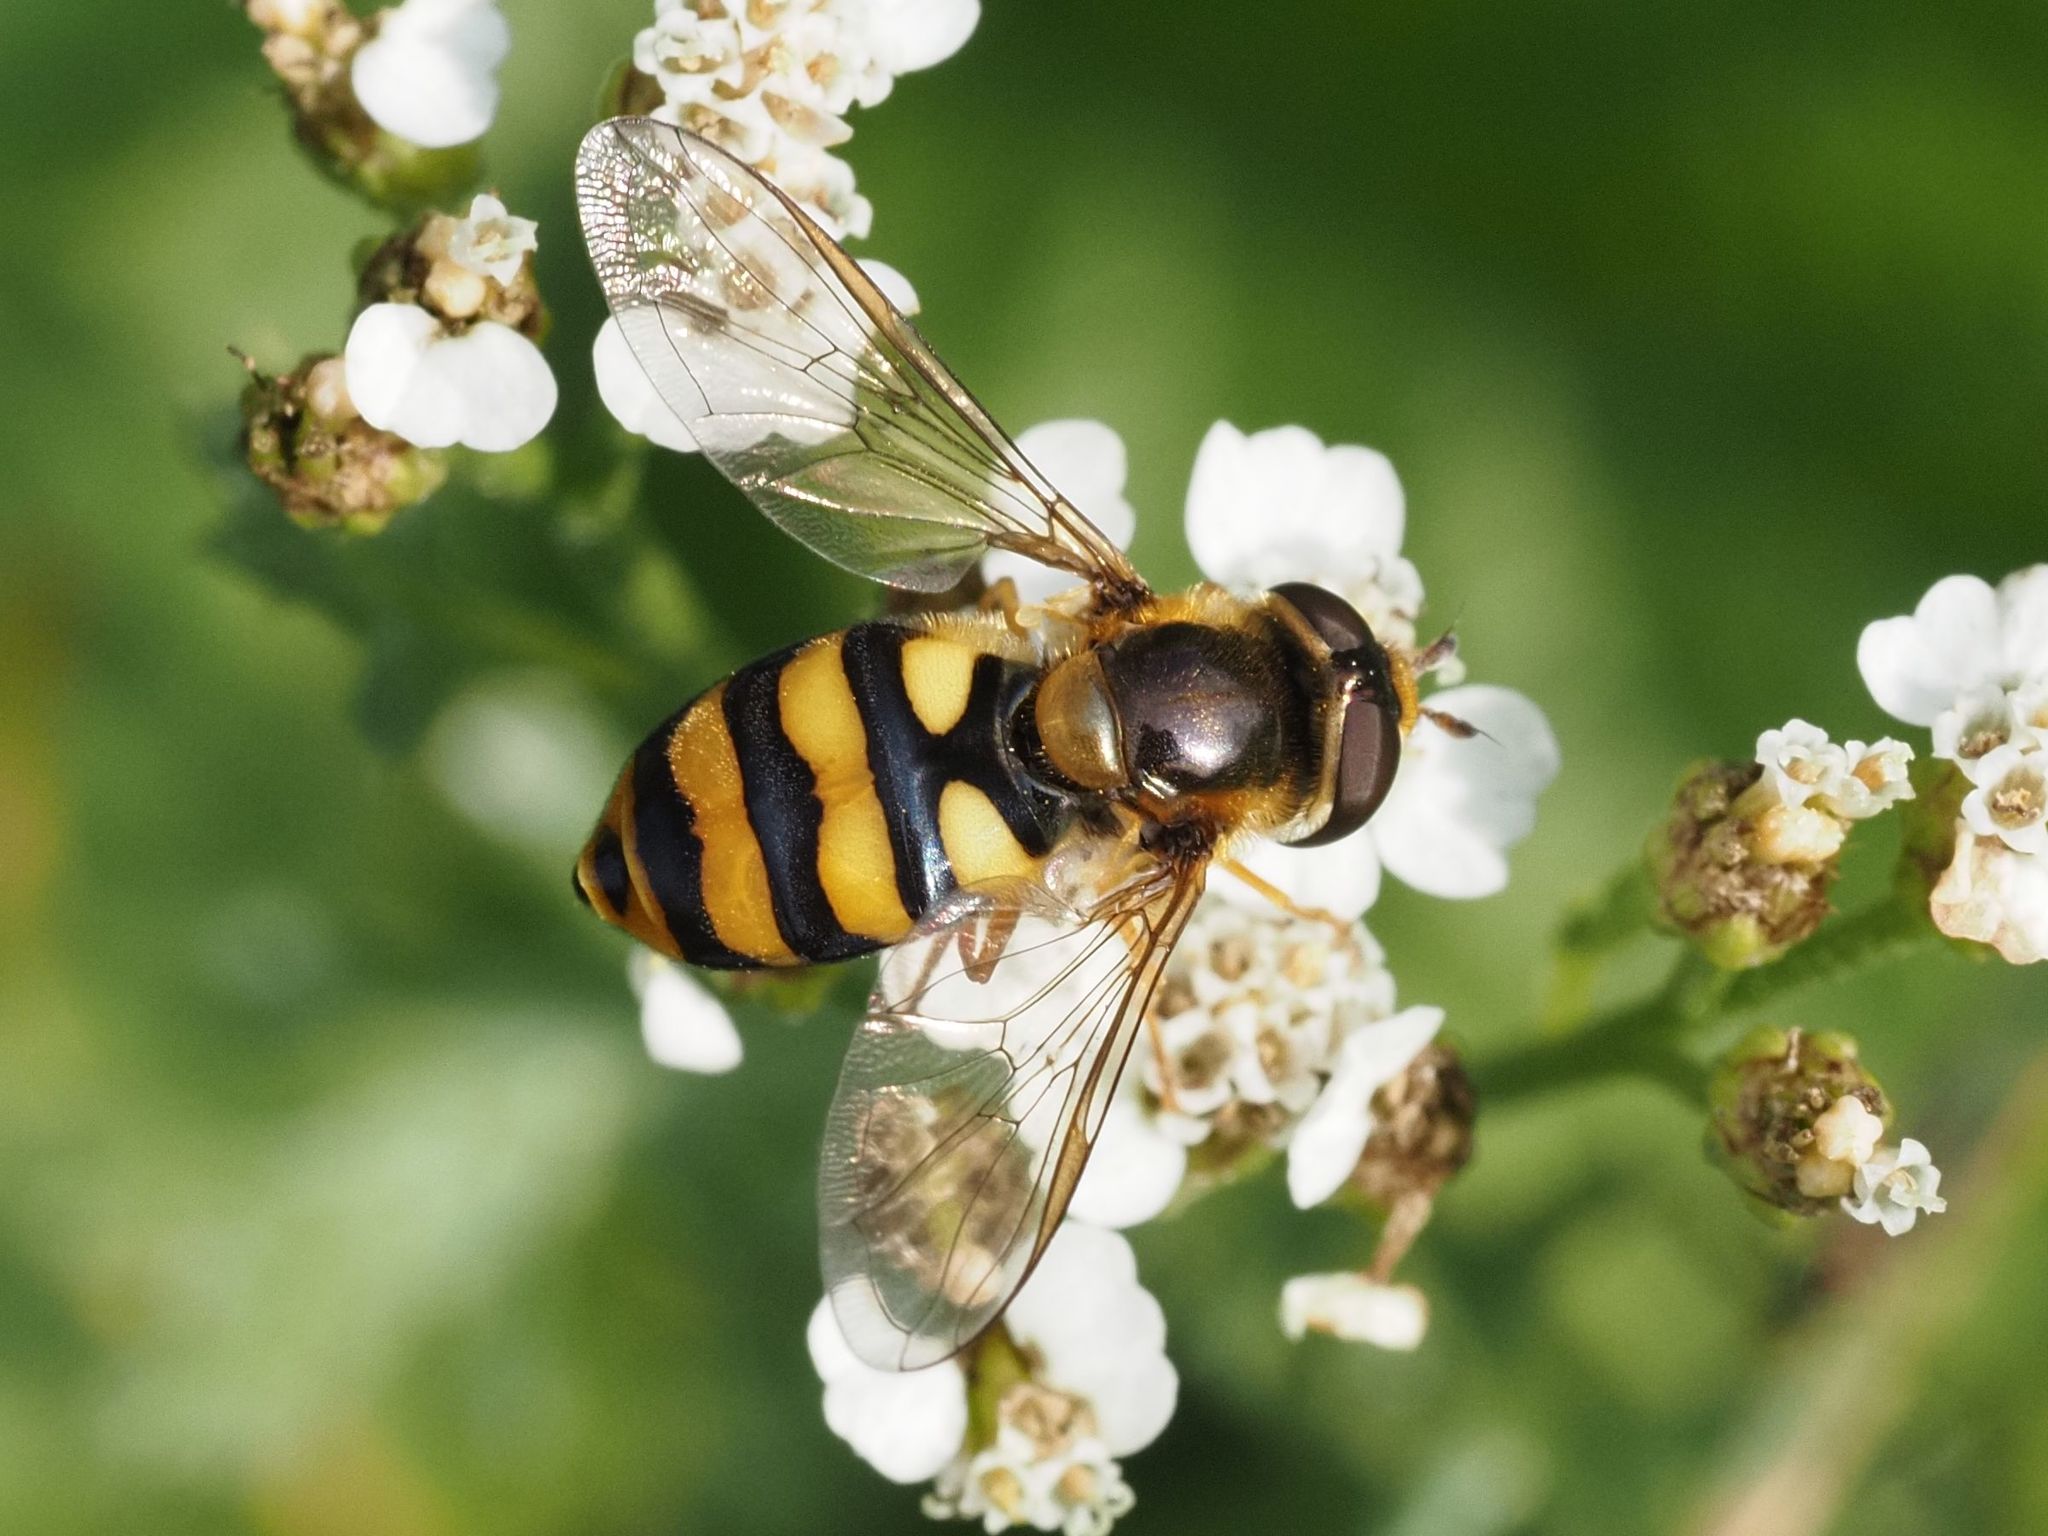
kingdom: Animalia
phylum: Arthropoda
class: Insecta
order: Diptera
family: Syrphidae
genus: Eupeodes
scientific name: Eupeodes latifasciatus
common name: Variable aphideater
